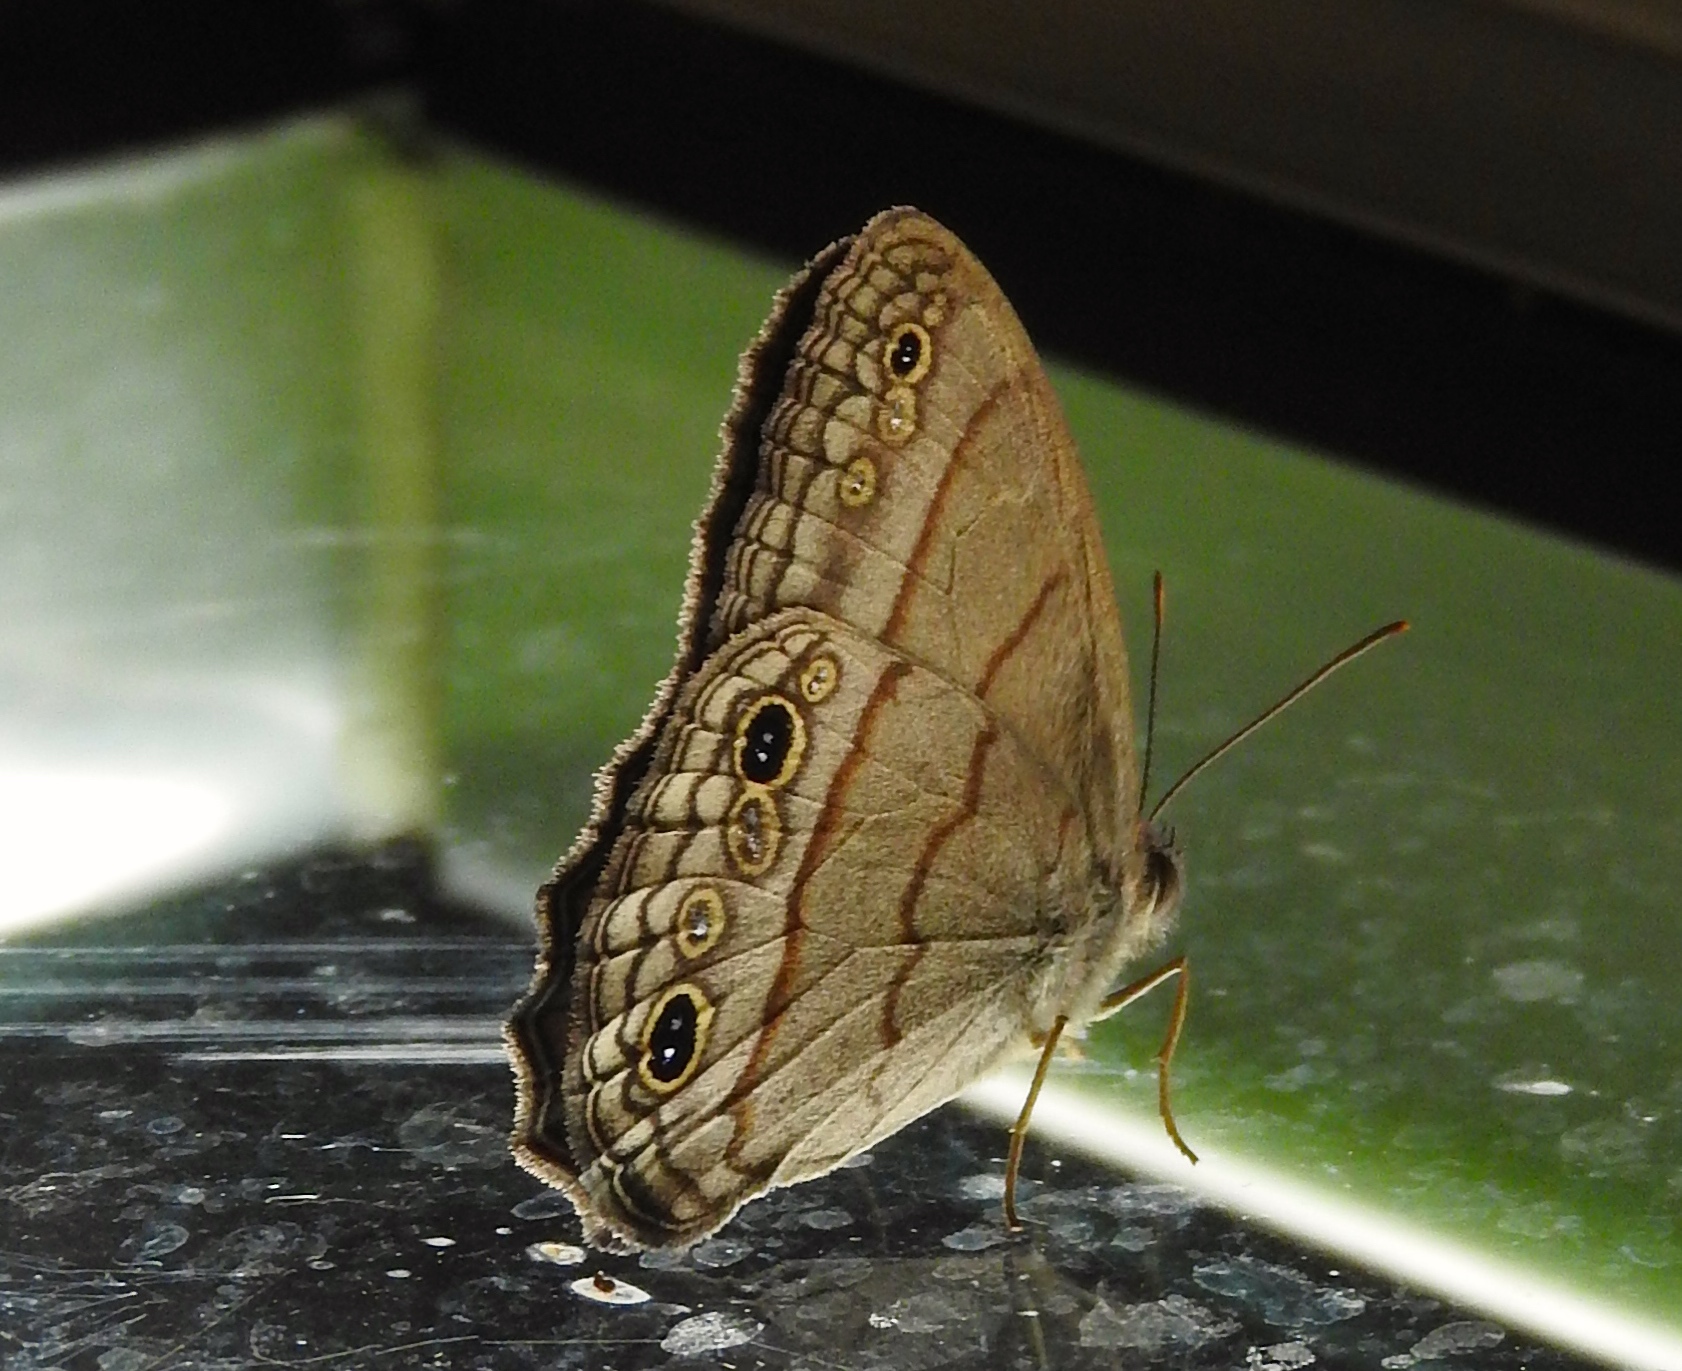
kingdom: Animalia
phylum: Arthropoda
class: Insecta
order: Lepidoptera
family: Nymphalidae
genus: Vareuptychia
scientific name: Vareuptychia similis
